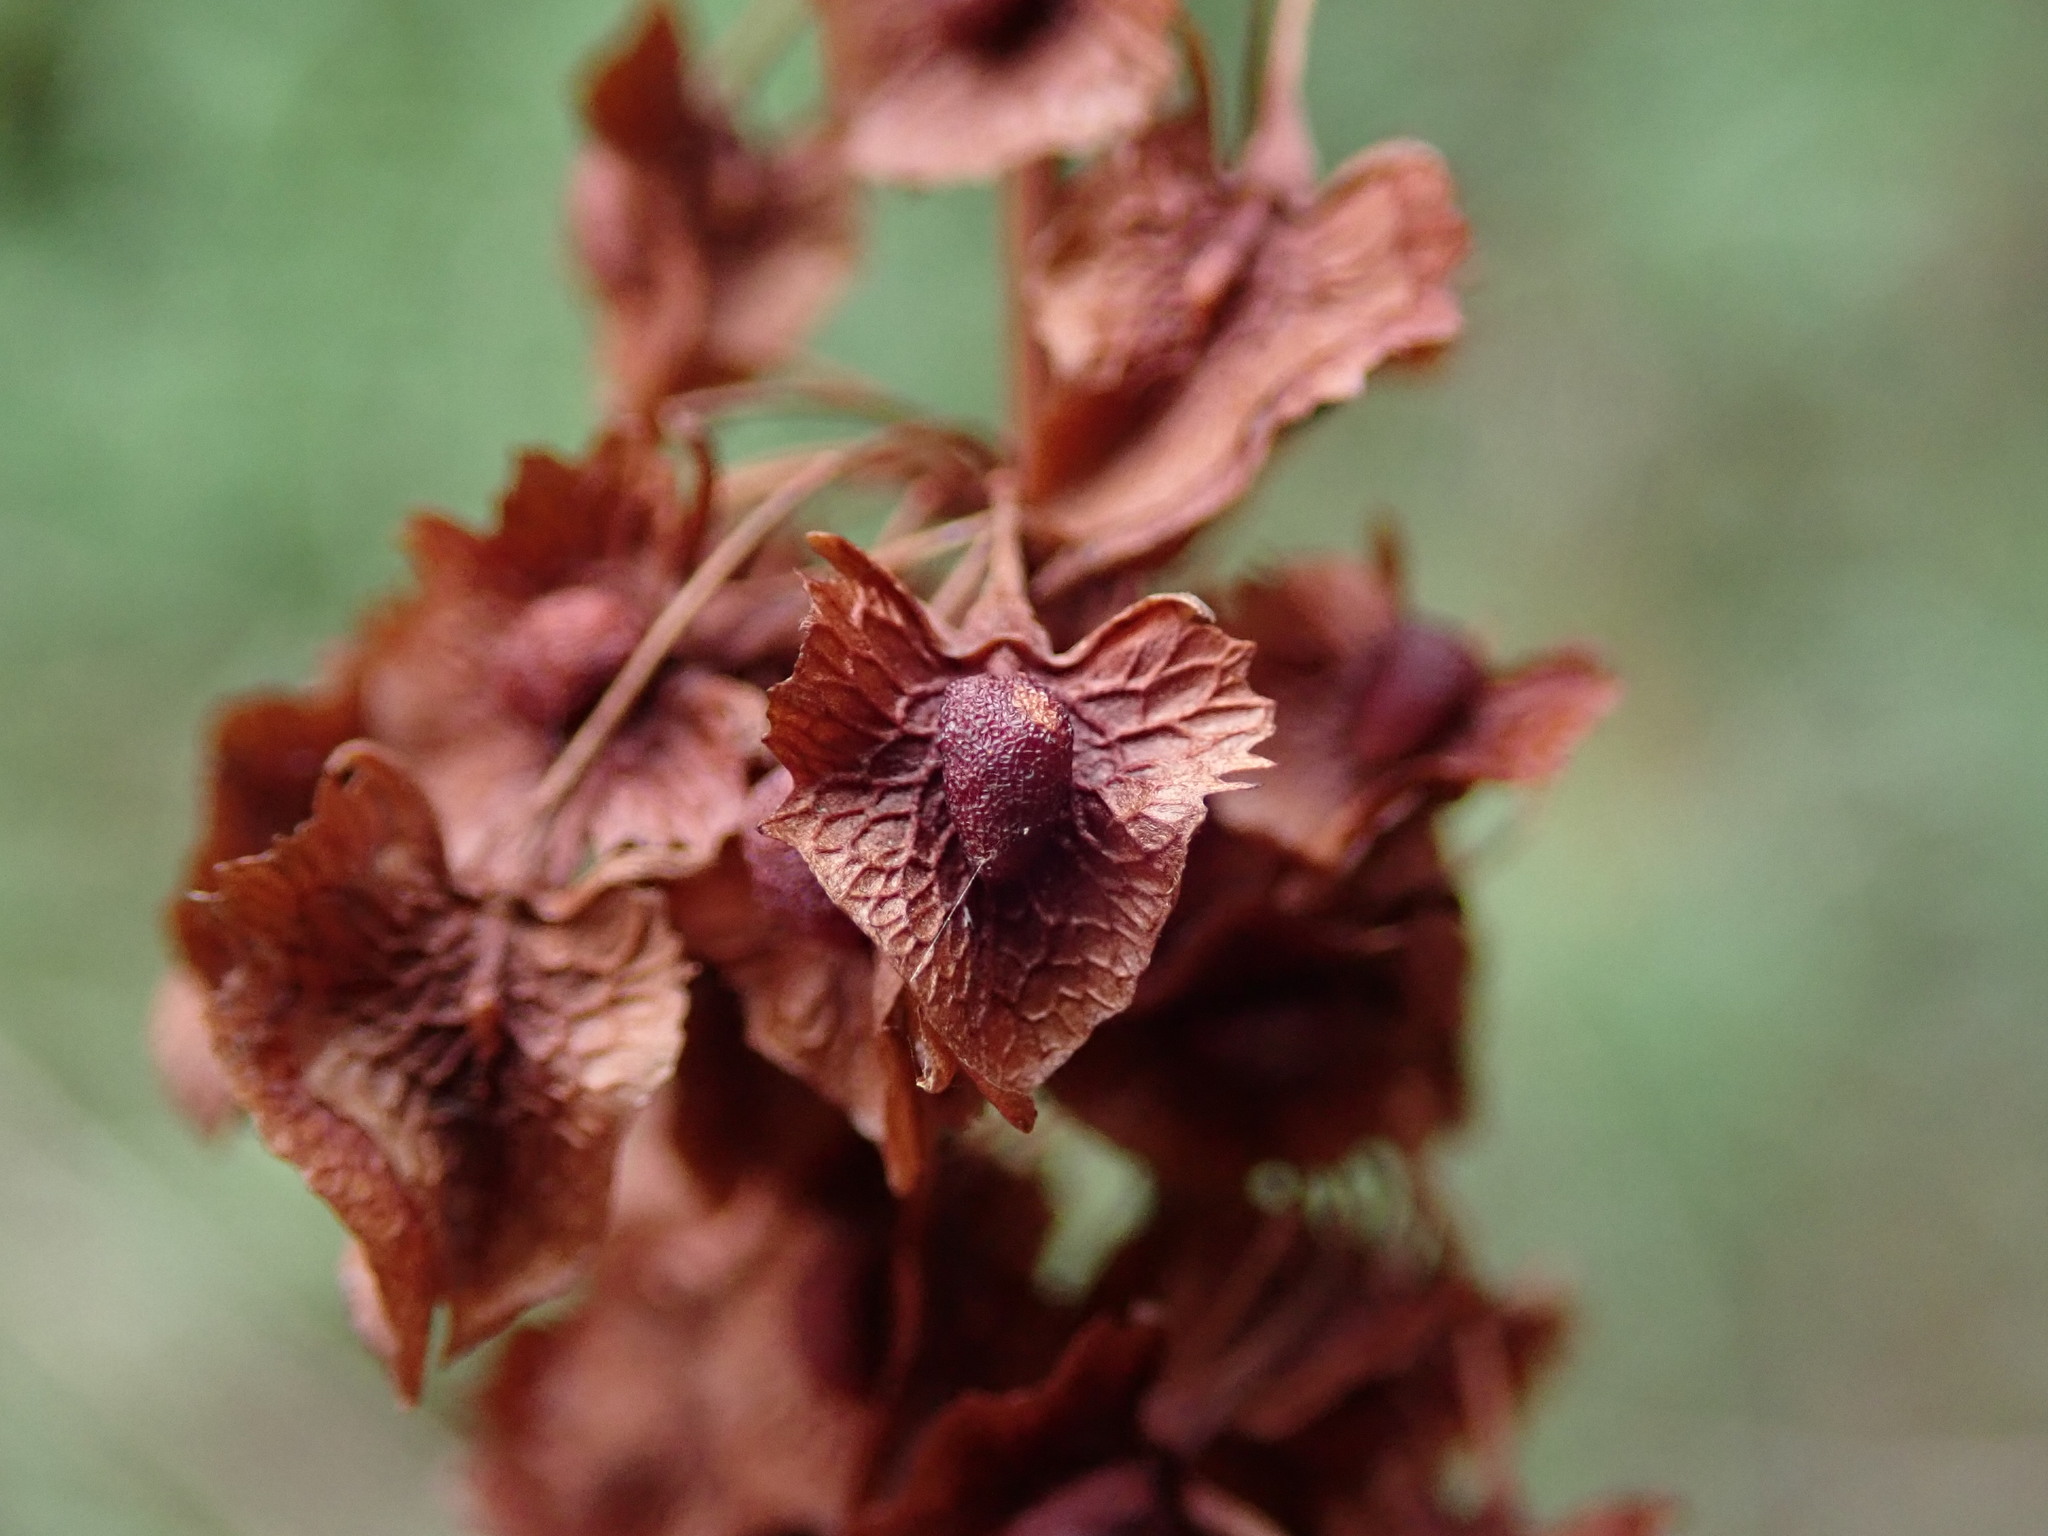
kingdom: Plantae
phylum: Tracheophyta
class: Magnoliopsida
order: Caryophyllales
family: Polygonaceae
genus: Rumex
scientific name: Rumex cristatus
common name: Greek dock
